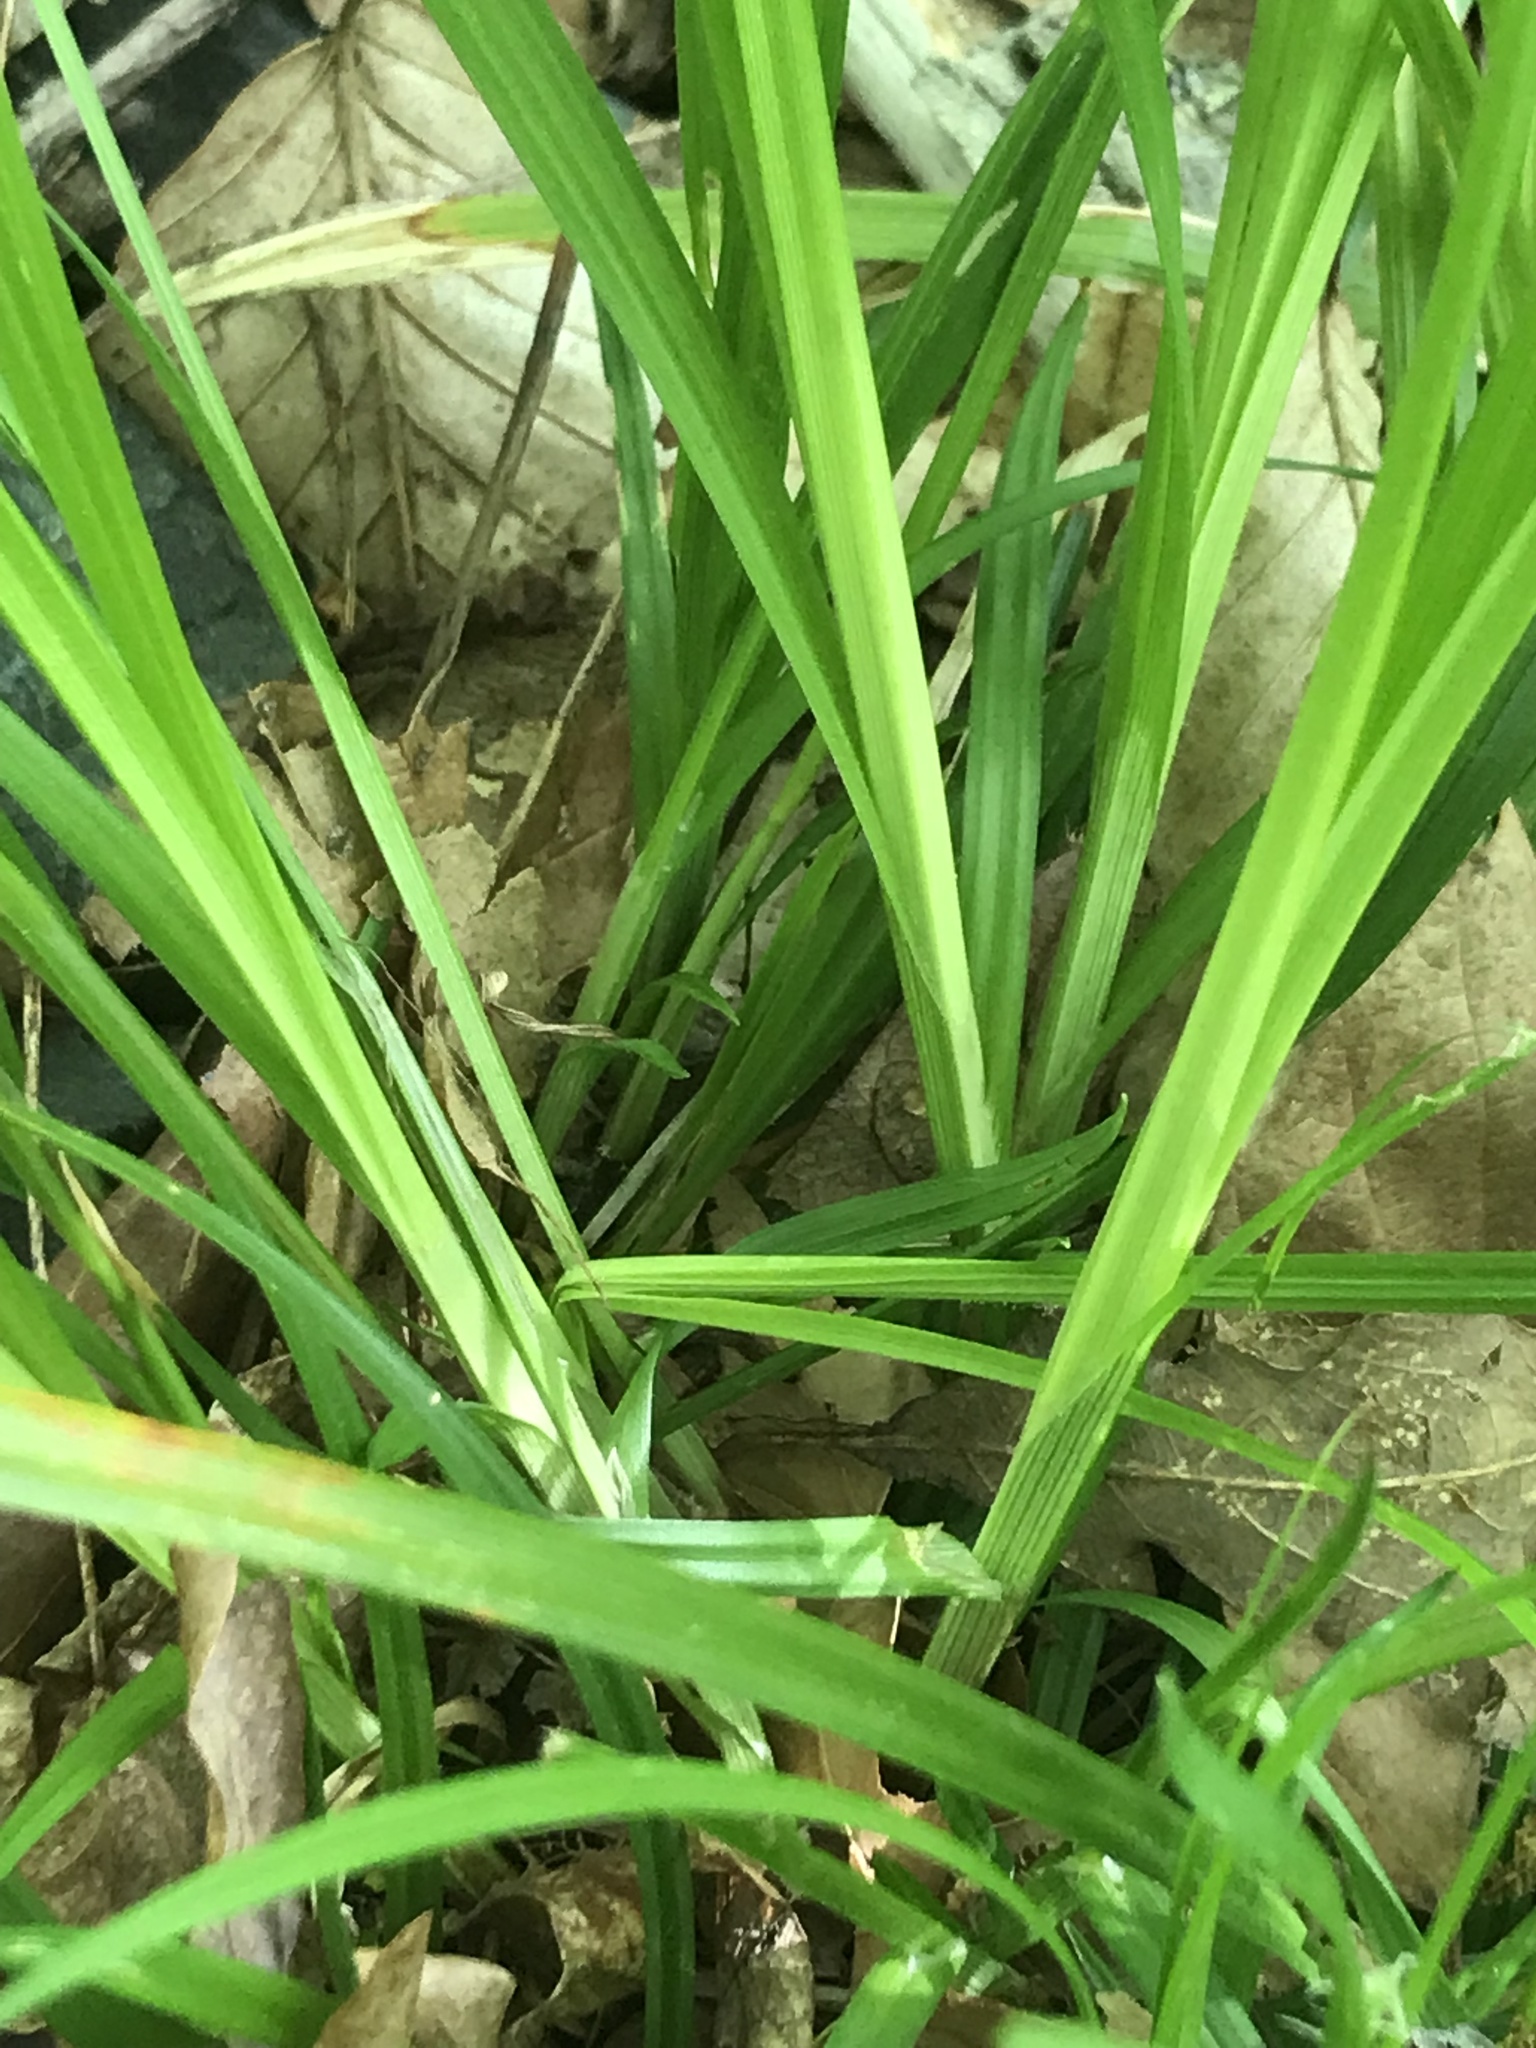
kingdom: Plantae
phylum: Tracheophyta
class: Liliopsida
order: Poales
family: Cyperaceae
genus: Carex
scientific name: Carex blanda
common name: Bland sedge
